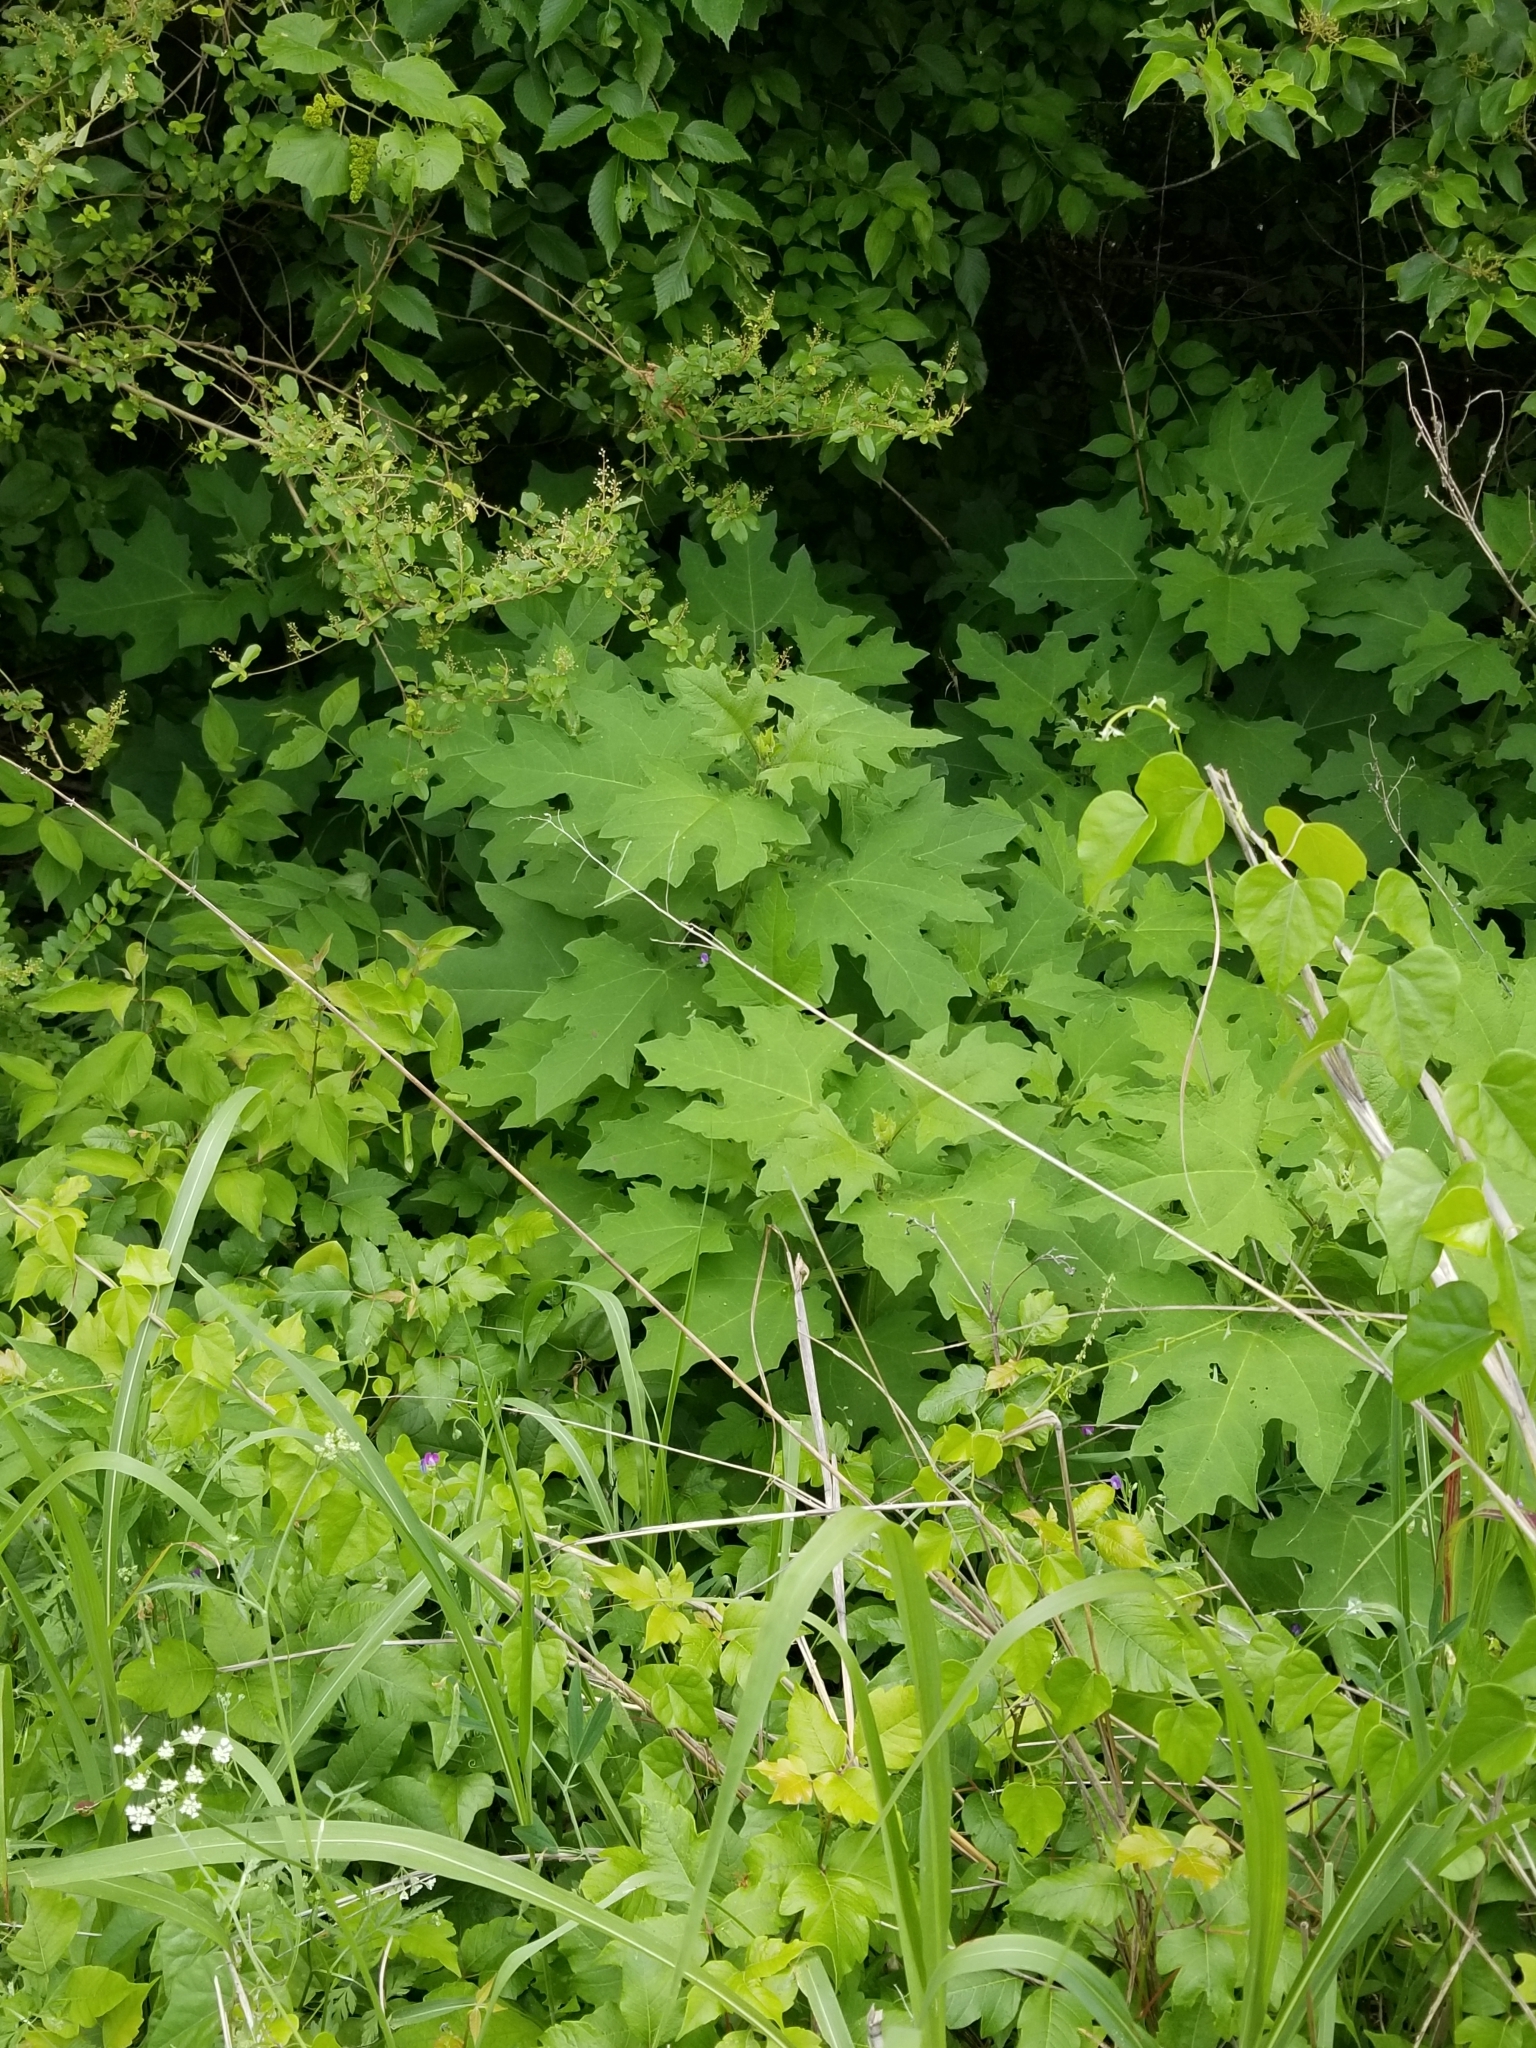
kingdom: Plantae
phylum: Tracheophyta
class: Magnoliopsida
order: Asterales
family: Asteraceae
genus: Smallanthus
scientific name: Smallanthus uvedalia
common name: Bear's-foot
